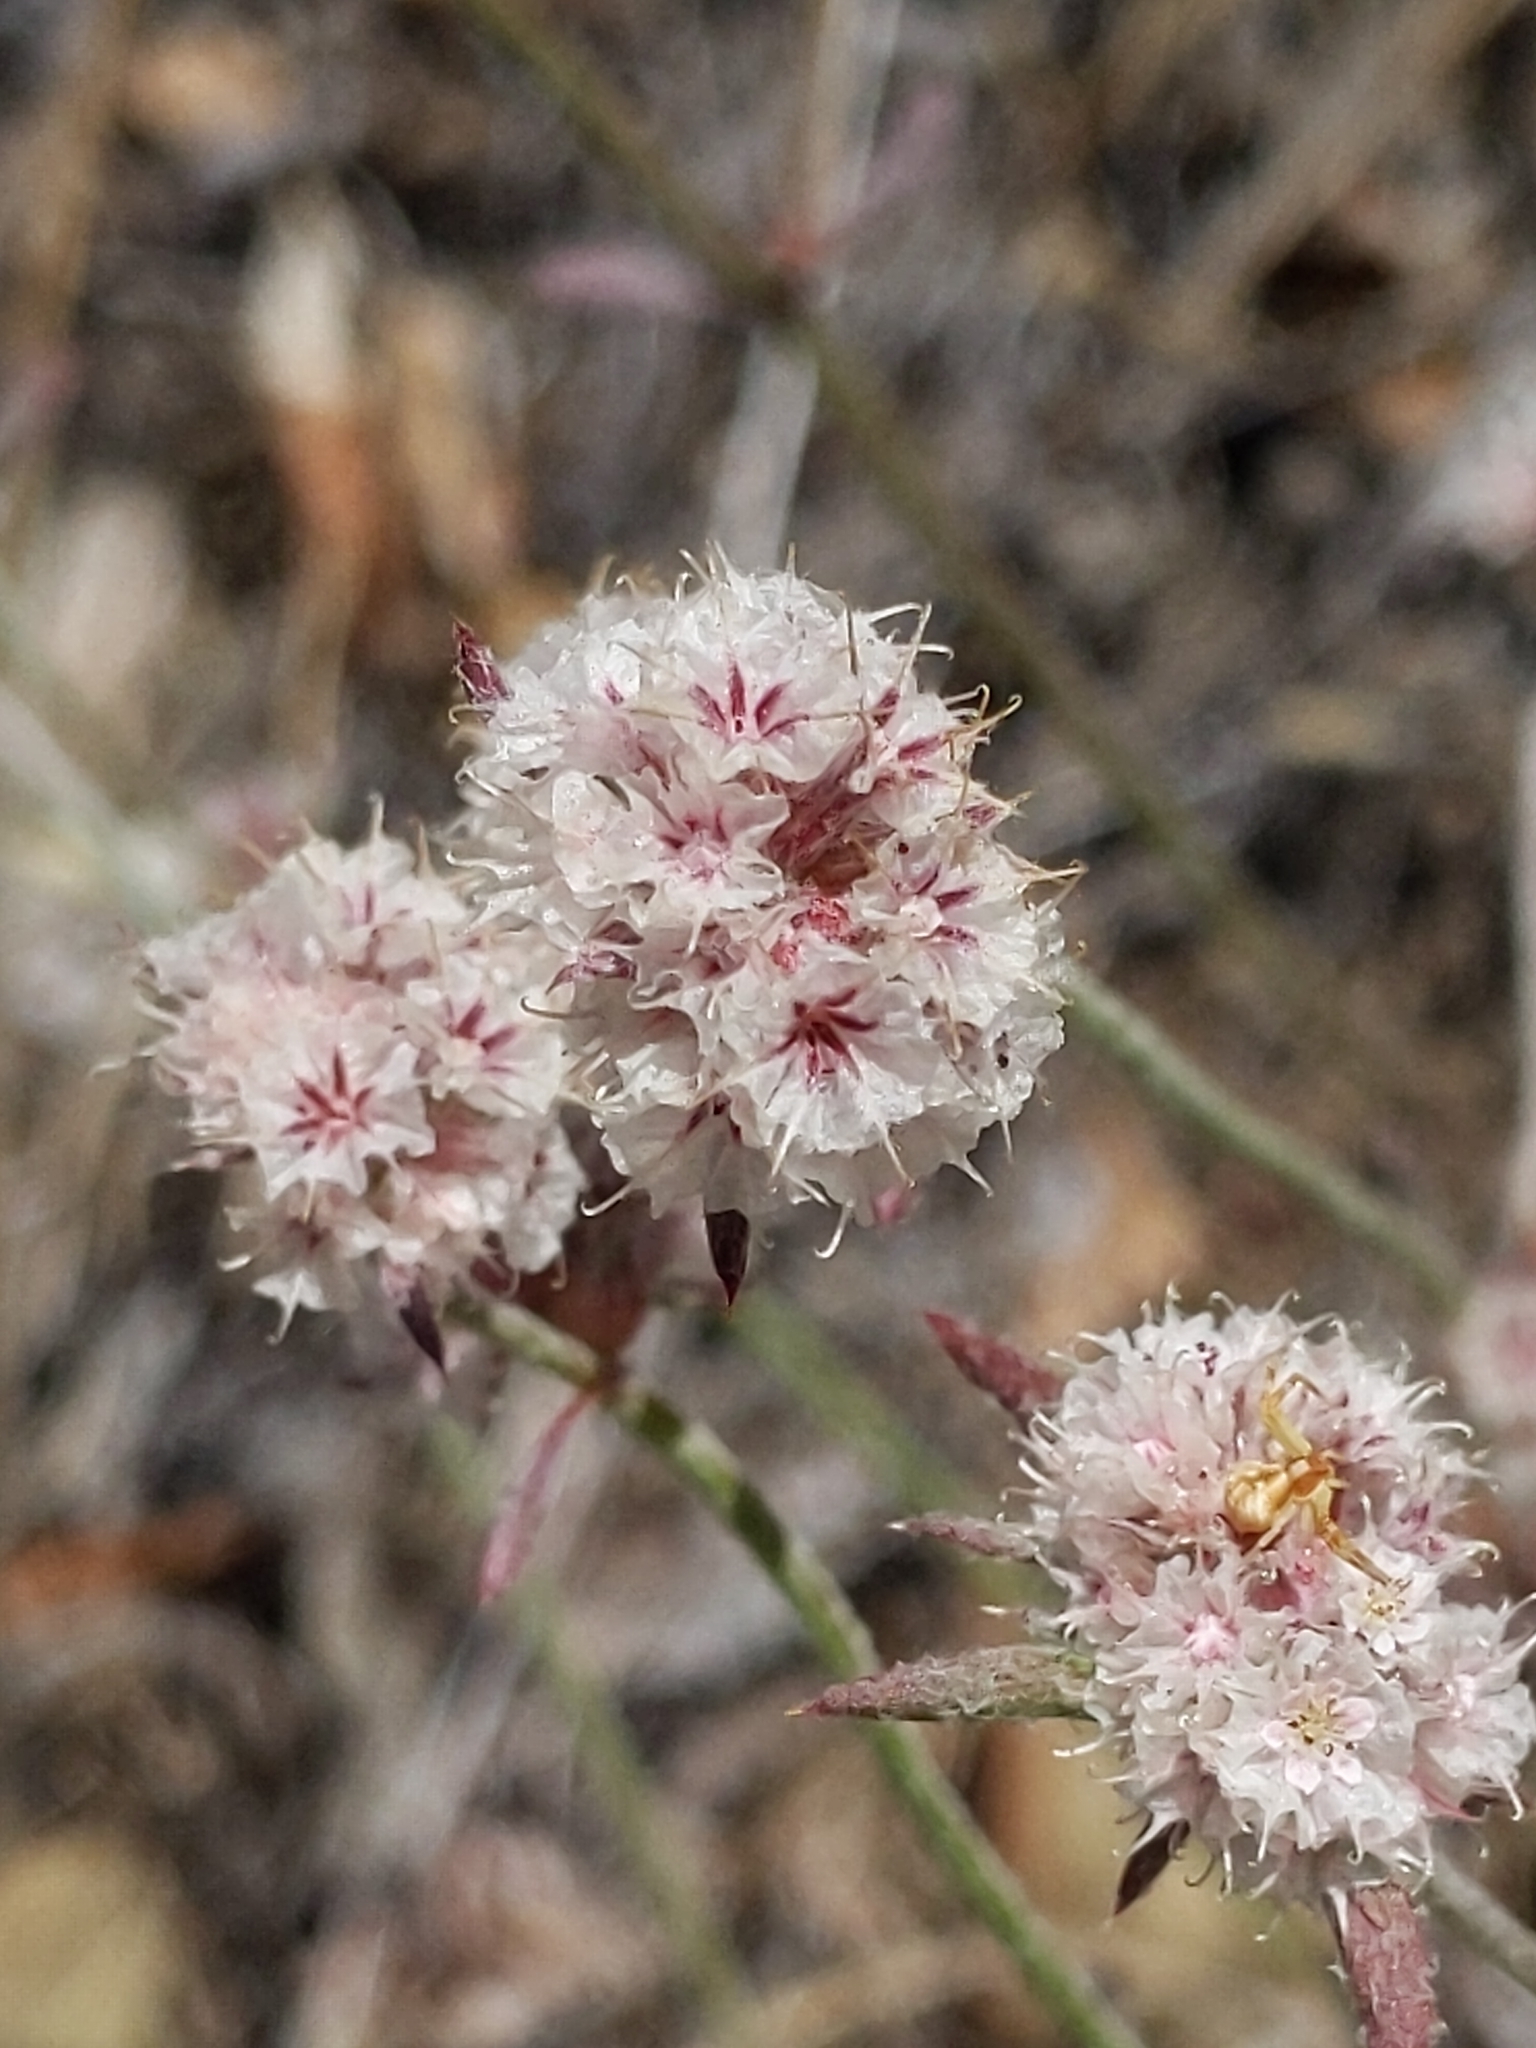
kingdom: Plantae
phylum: Tracheophyta
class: Magnoliopsida
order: Caryophyllales
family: Polygonaceae
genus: Chorizanthe
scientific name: Chorizanthe membranacea
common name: Pink spineflower
